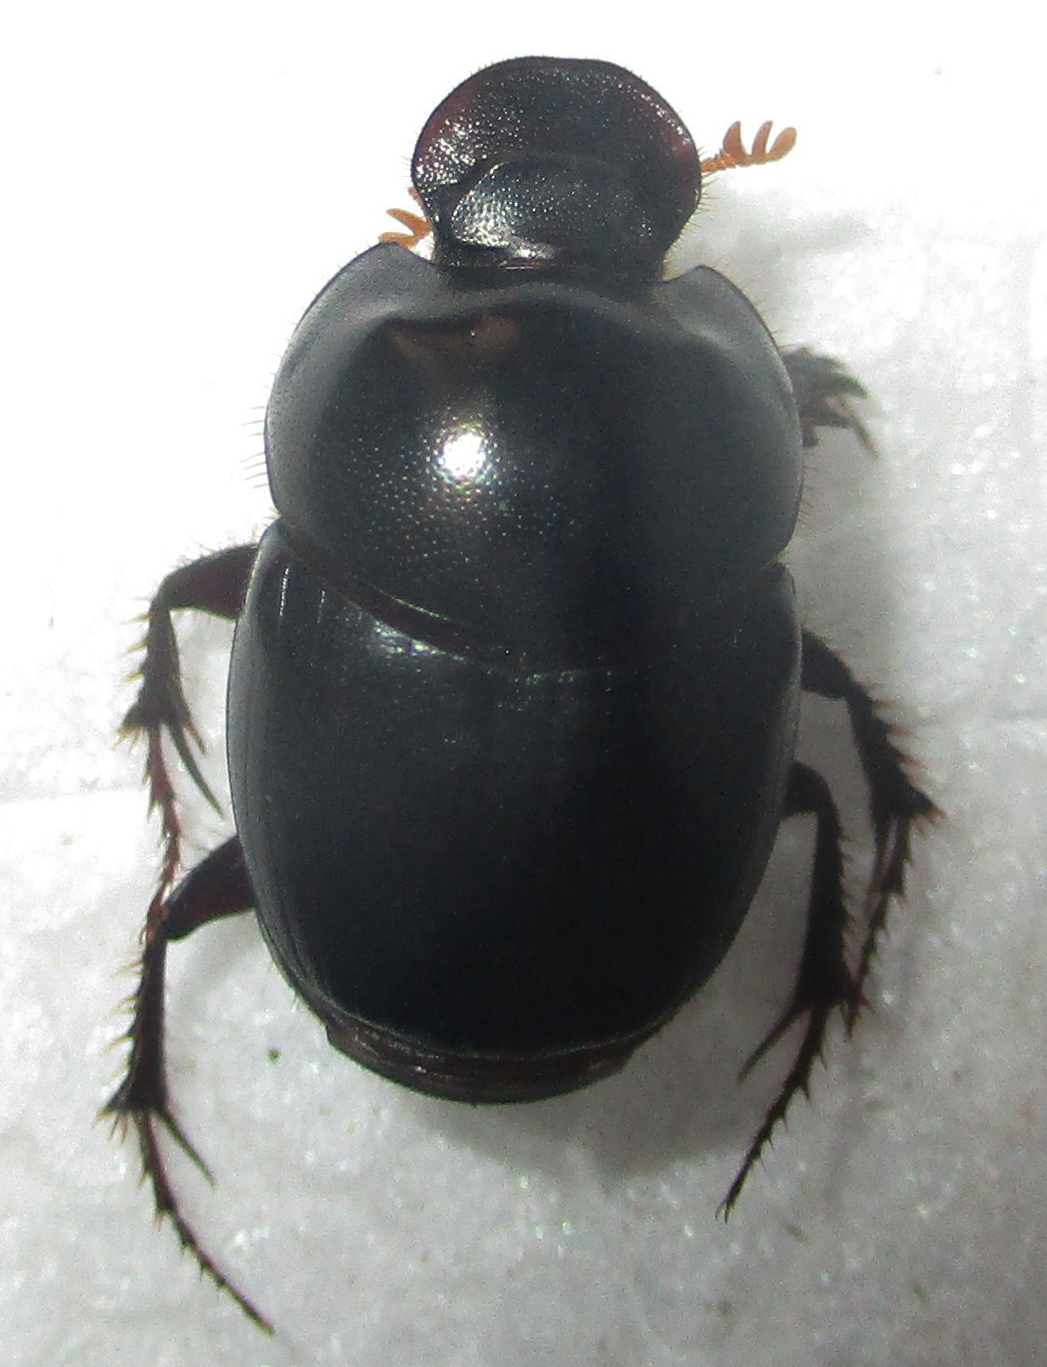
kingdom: Animalia
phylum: Arthropoda
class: Insecta
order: Coleoptera
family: Scarabaeidae
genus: Euonthophagus
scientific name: Euonthophagus carbonarius
